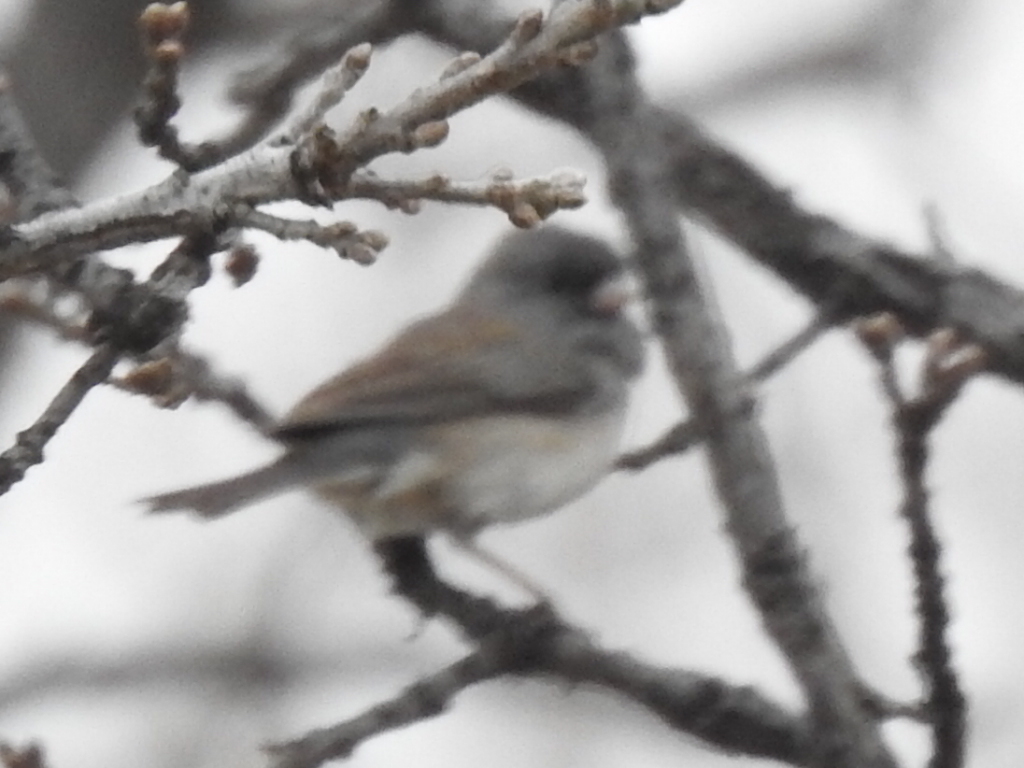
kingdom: Animalia
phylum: Chordata
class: Aves
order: Passeriformes
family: Passerellidae
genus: Junco
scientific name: Junco hyemalis
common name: Dark-eyed junco
